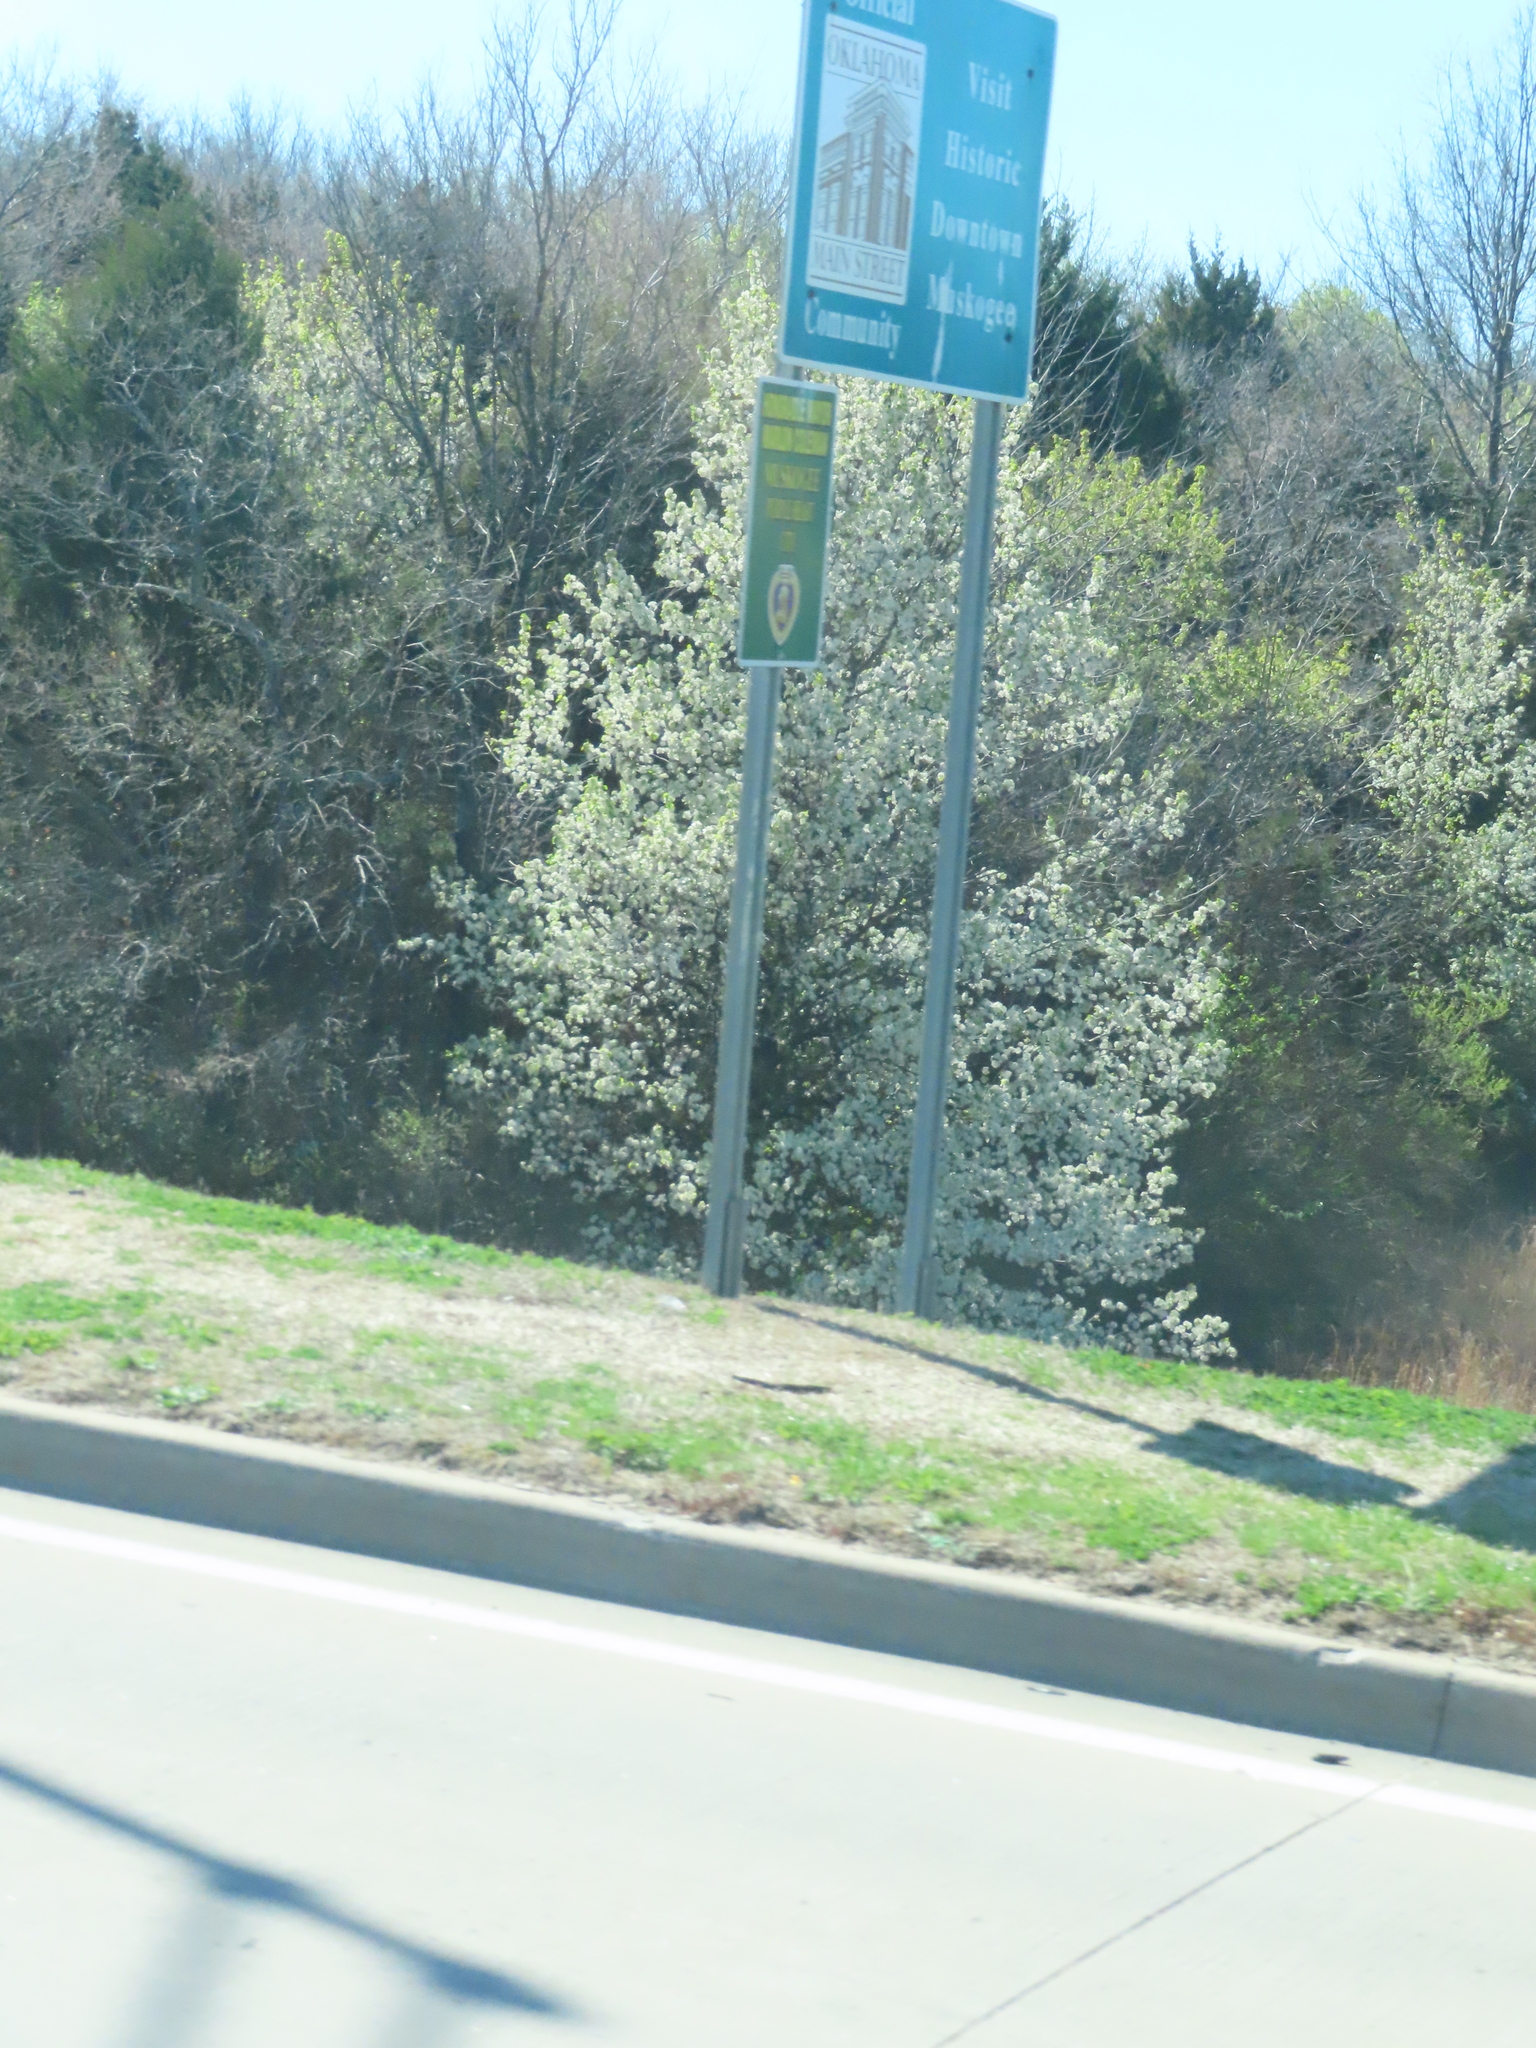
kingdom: Plantae
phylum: Tracheophyta
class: Magnoliopsida
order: Rosales
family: Rosaceae
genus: Pyrus
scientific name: Pyrus calleryana
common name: Callery pear
